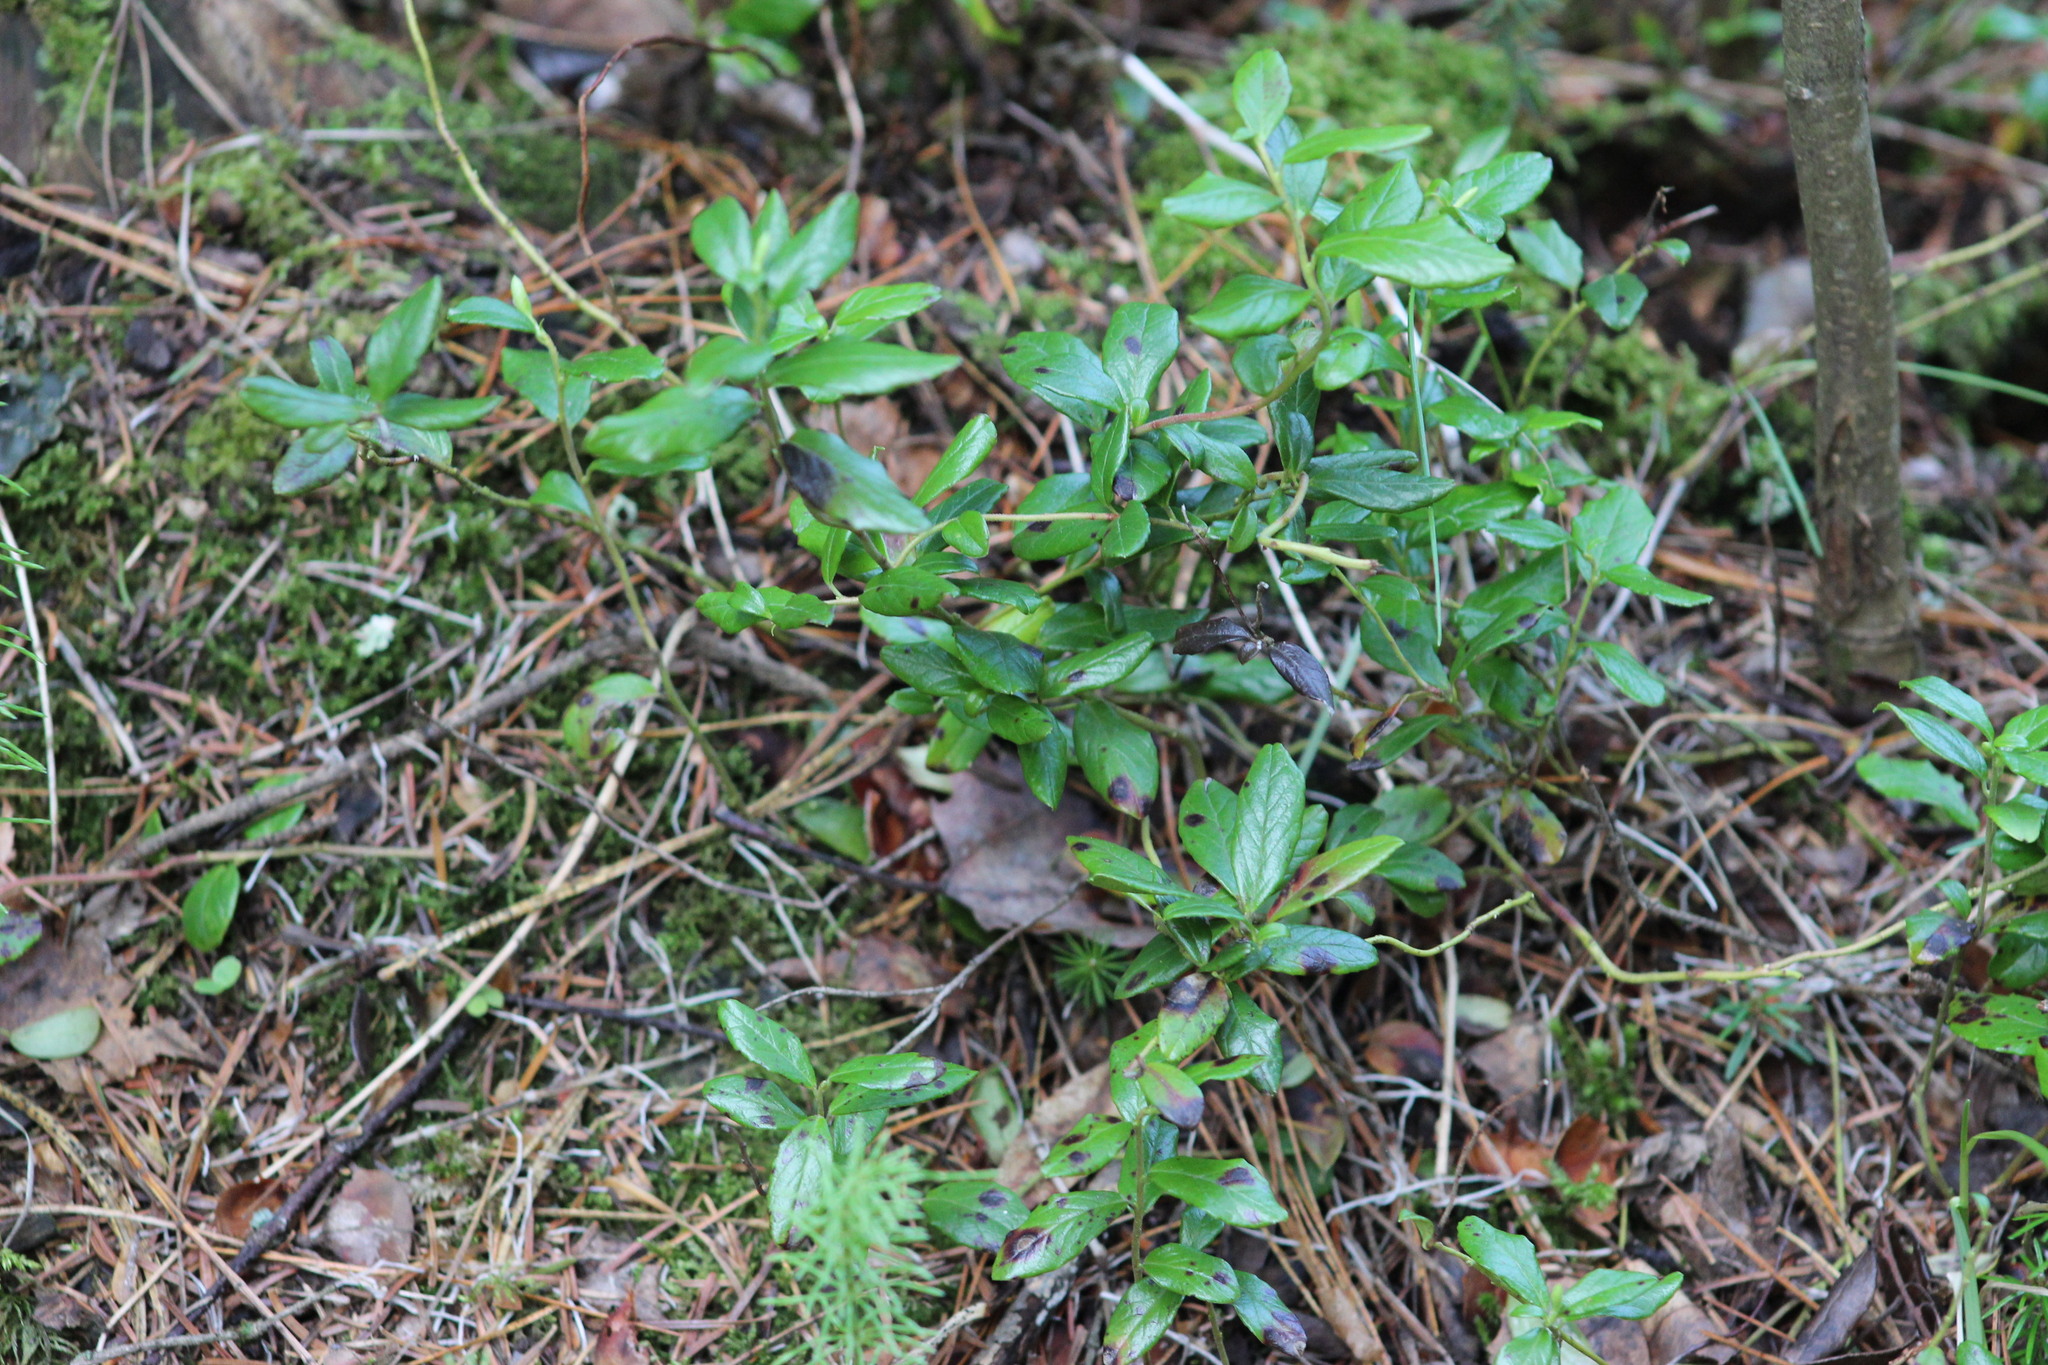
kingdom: Plantae
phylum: Tracheophyta
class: Magnoliopsida
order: Ericales
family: Ericaceae
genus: Vaccinium
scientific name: Vaccinium vitis-idaea
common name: Cowberry
